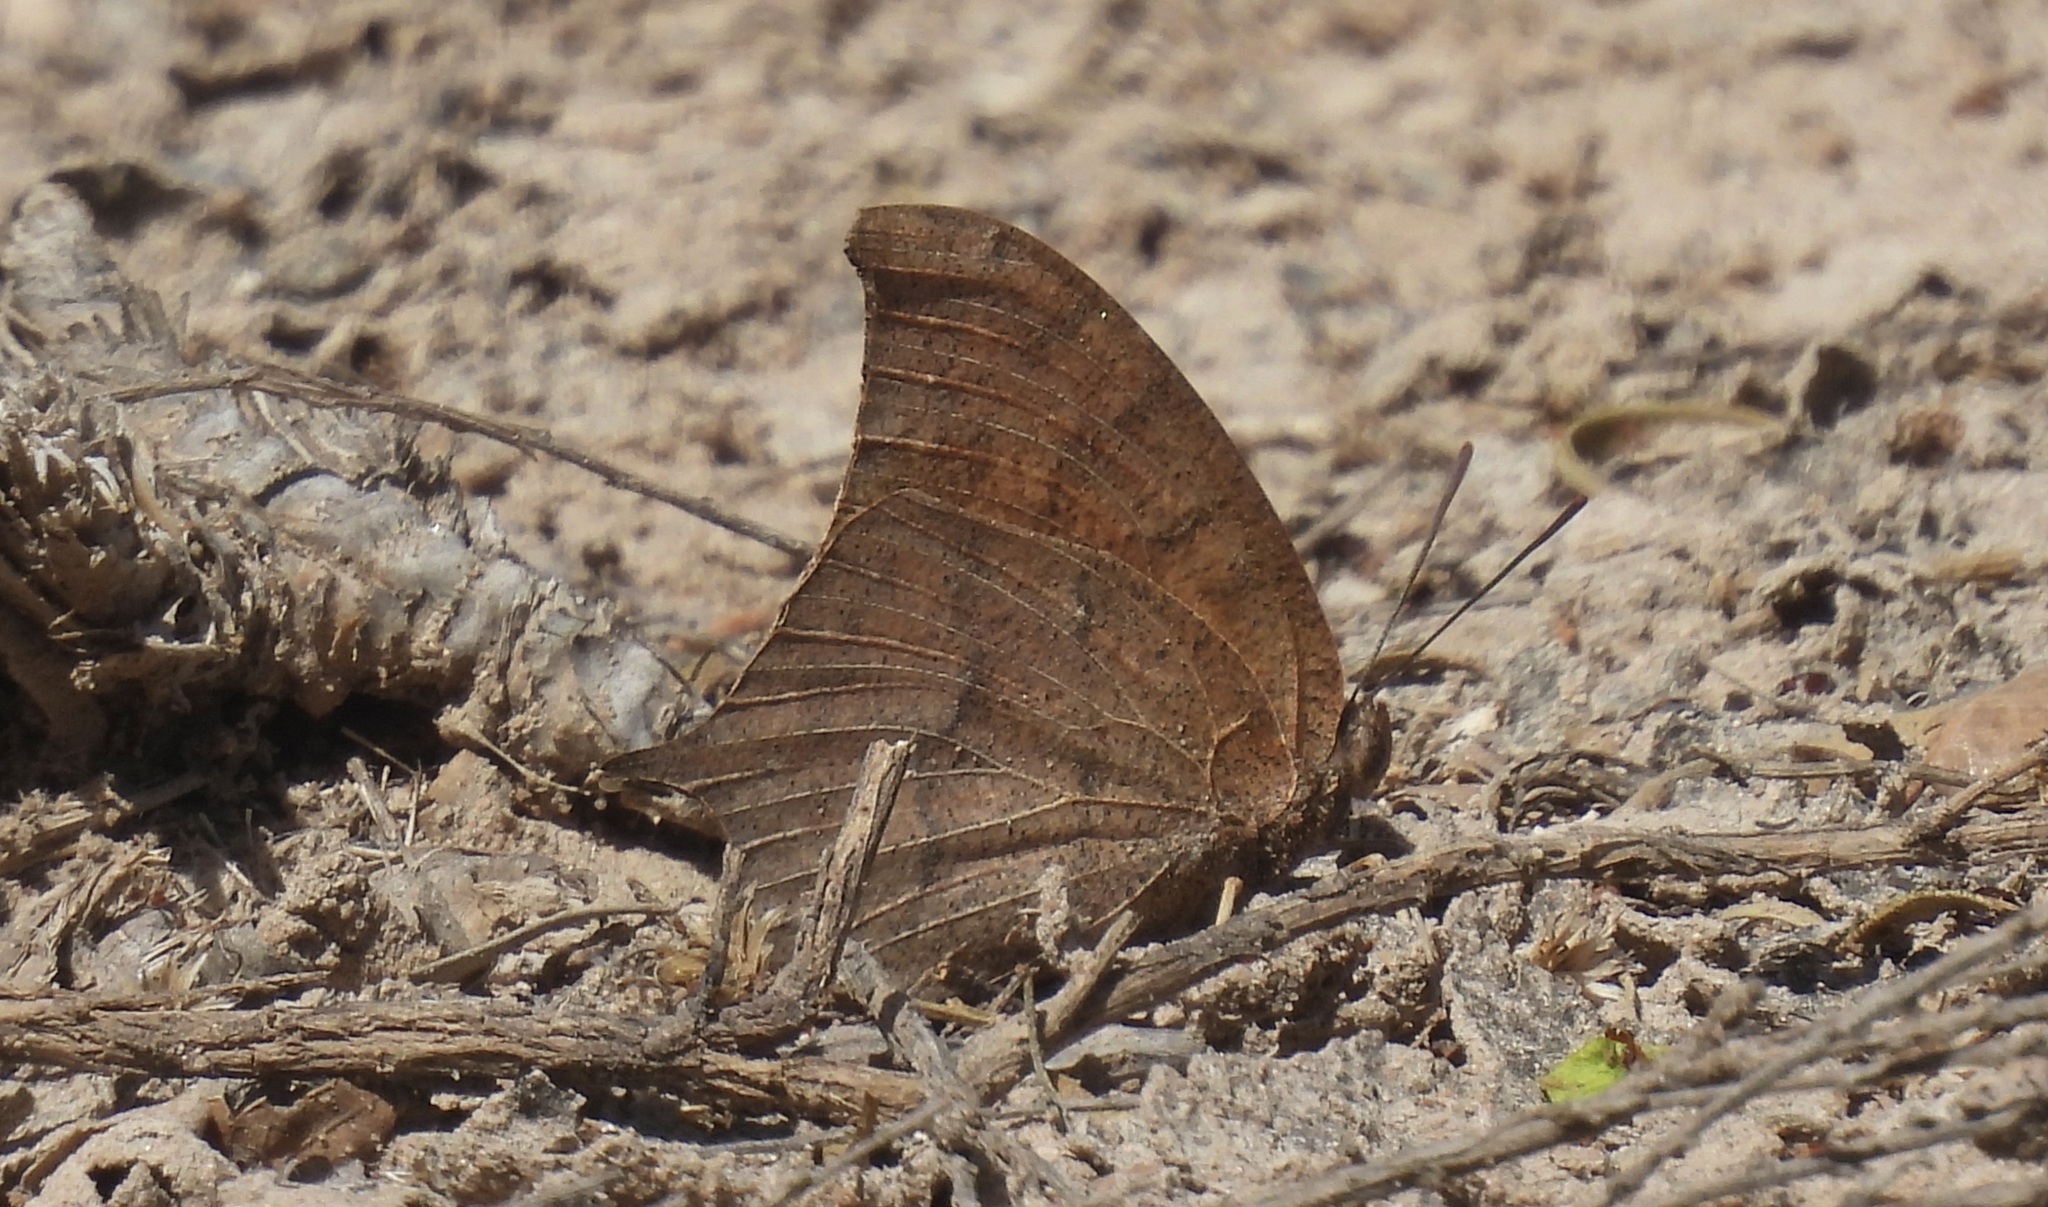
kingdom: Animalia
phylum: Arthropoda
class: Insecta
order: Lepidoptera
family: Nymphalidae
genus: Anaea
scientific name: Anaea andria
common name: Goatweed leafwing
